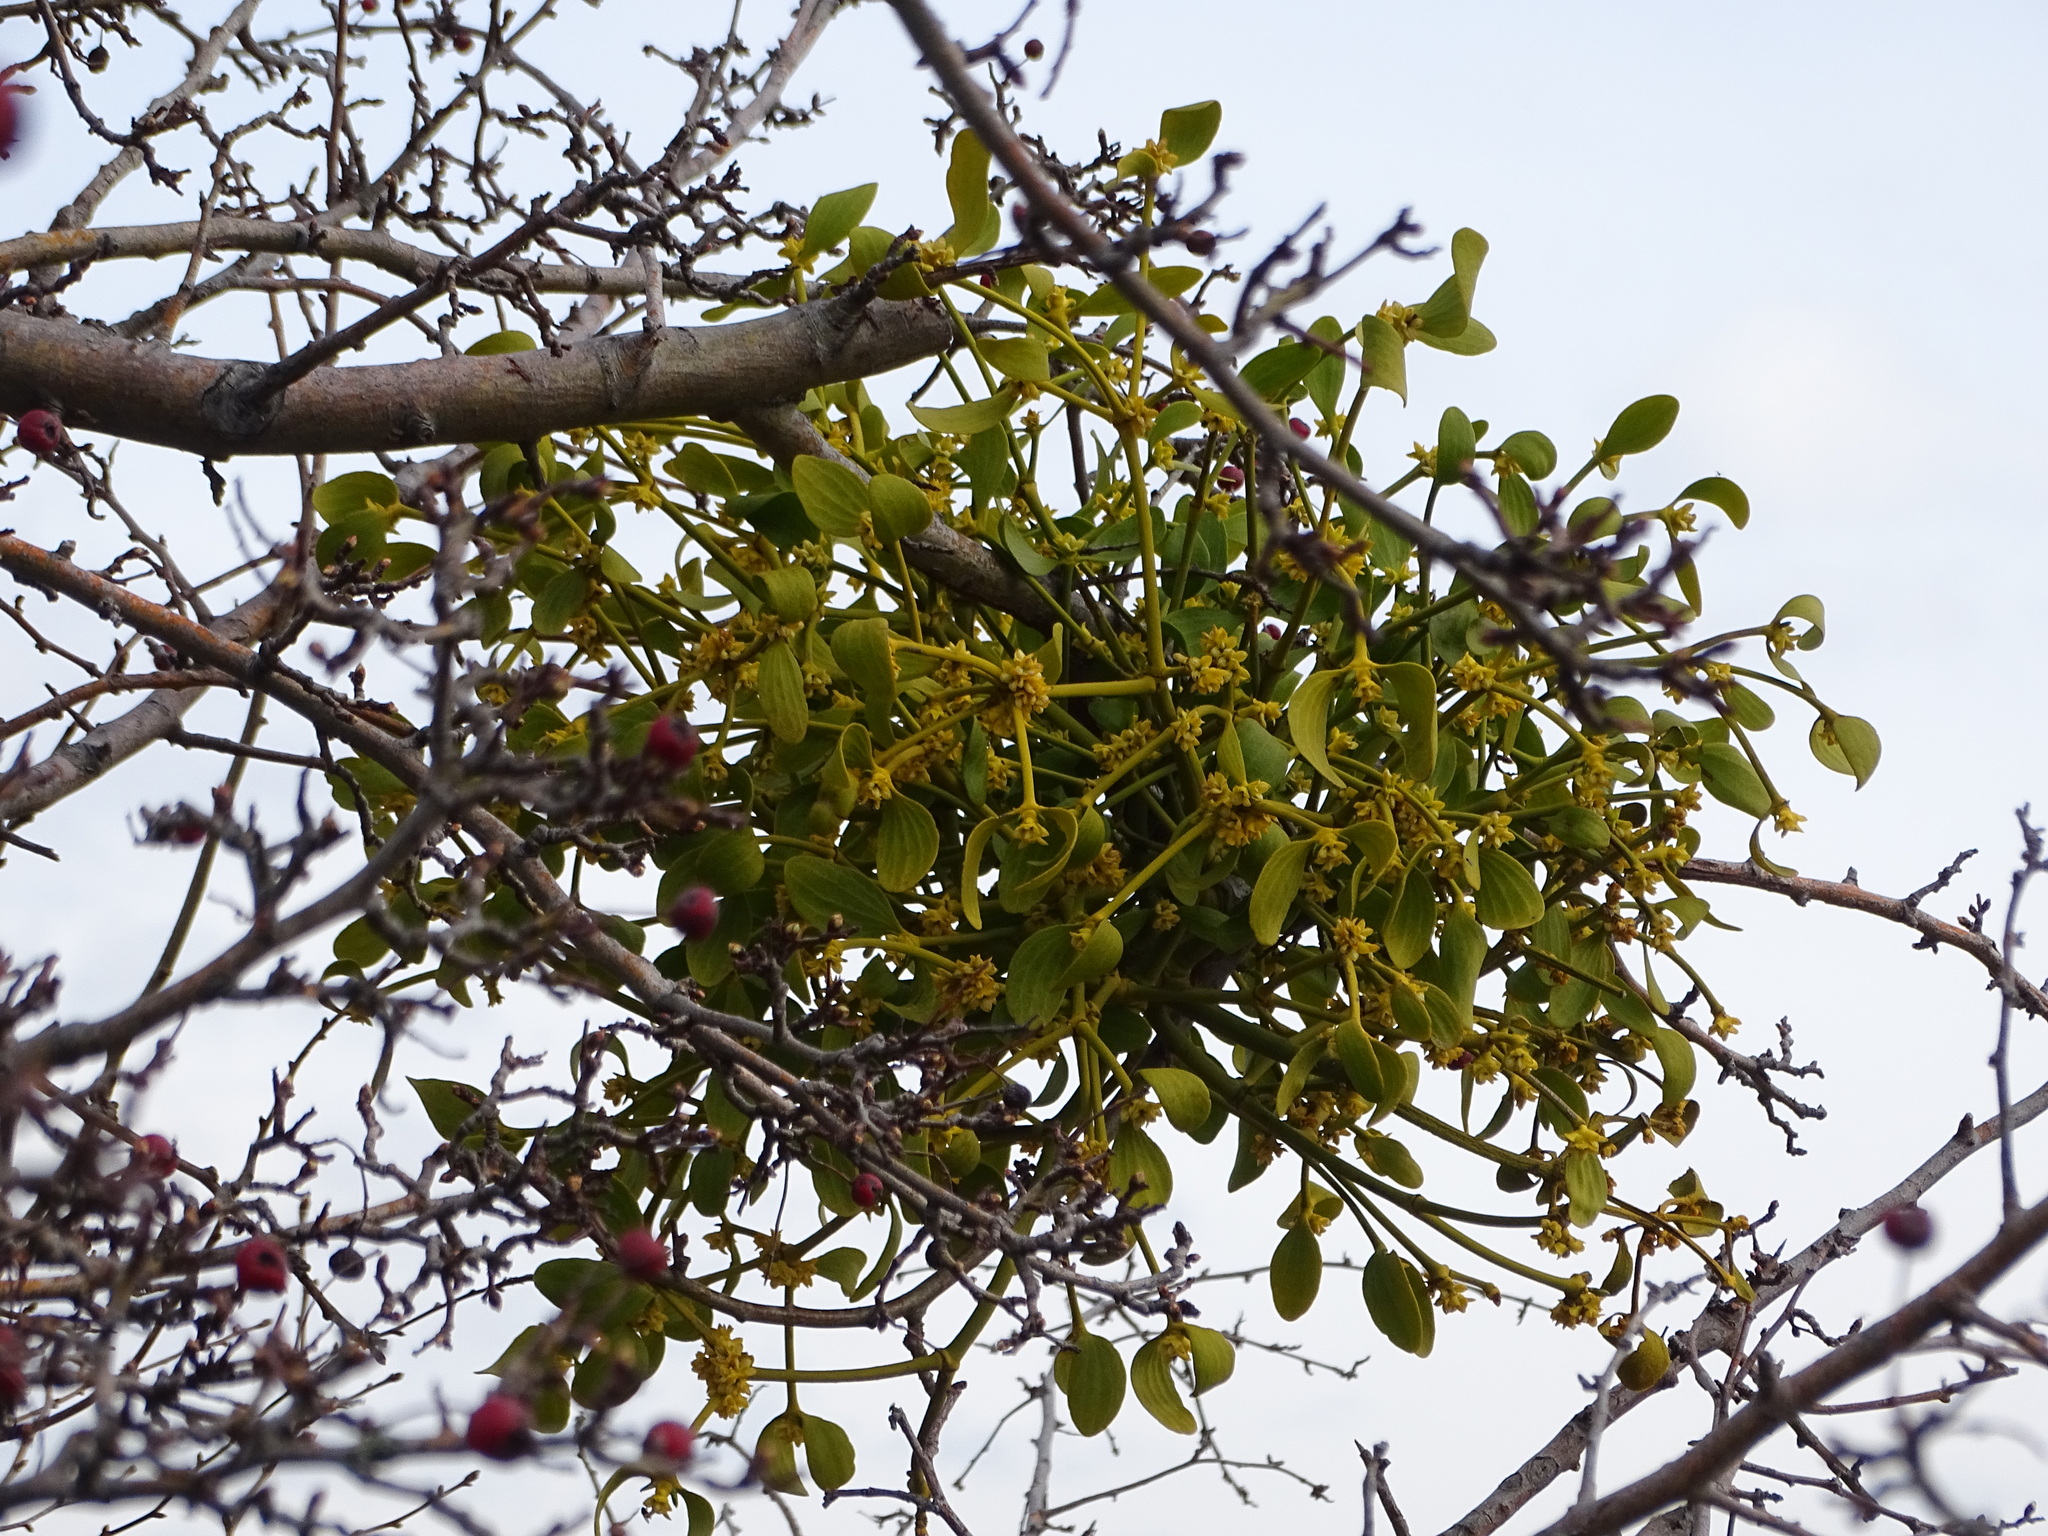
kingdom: Plantae
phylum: Tracheophyta
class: Magnoliopsida
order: Santalales
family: Viscaceae
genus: Viscum
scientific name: Viscum album
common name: Mistletoe
